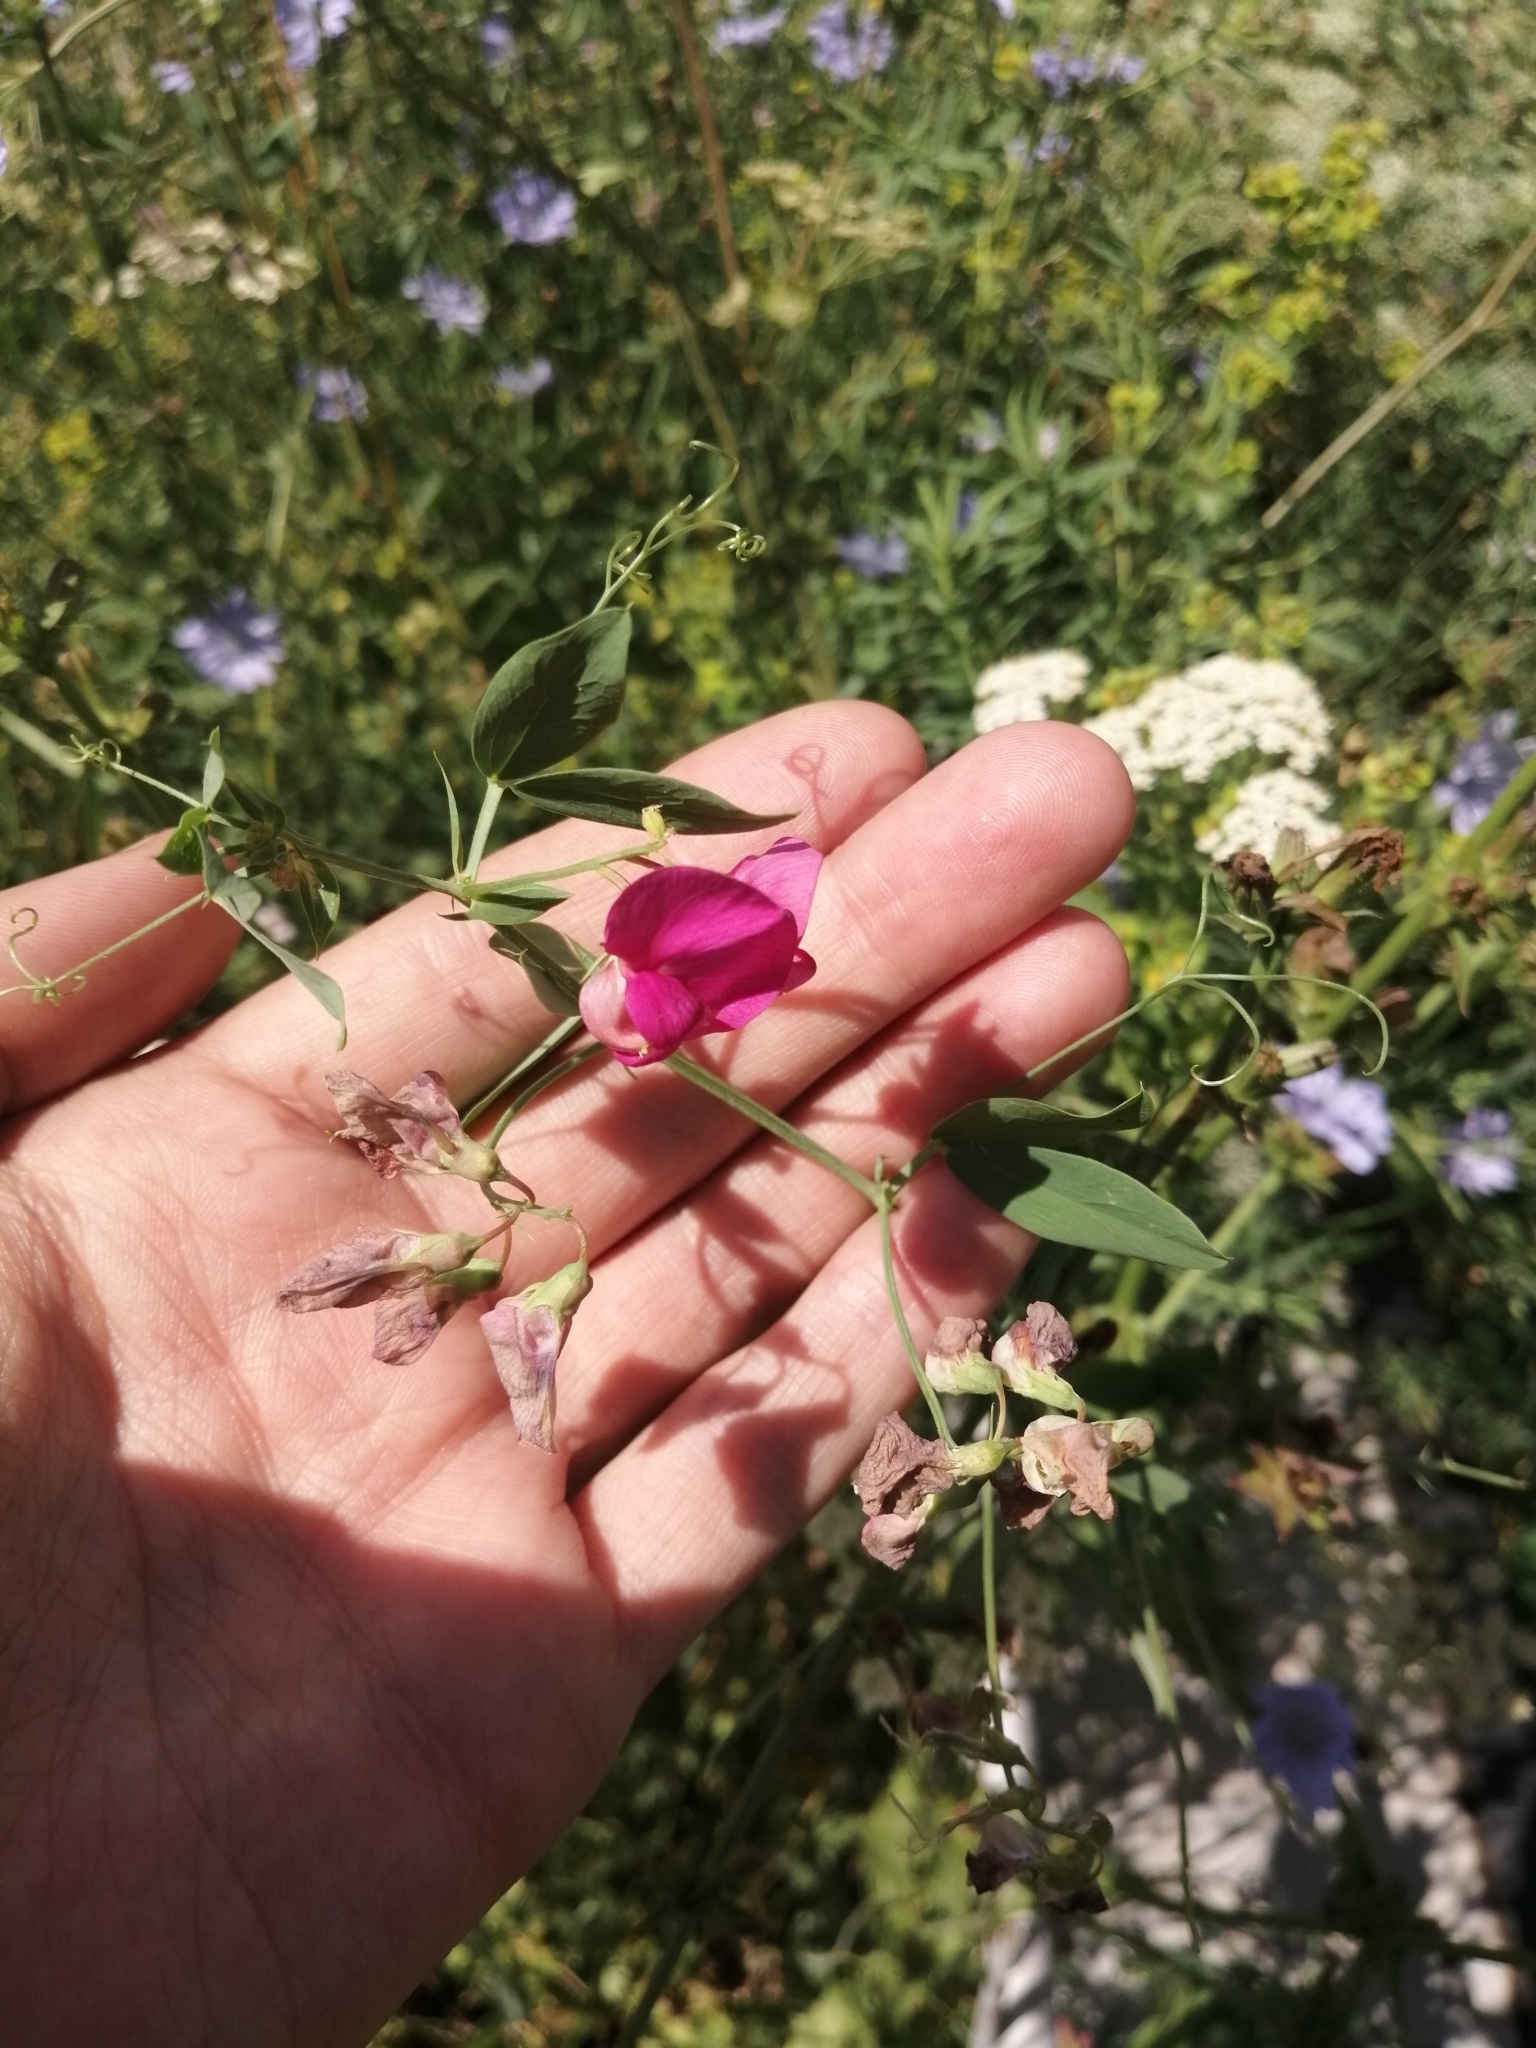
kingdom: Plantae
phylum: Tracheophyta
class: Magnoliopsida
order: Fabales
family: Fabaceae
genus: Lathyrus
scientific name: Lathyrus tuberosus
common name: Tuberous pea
